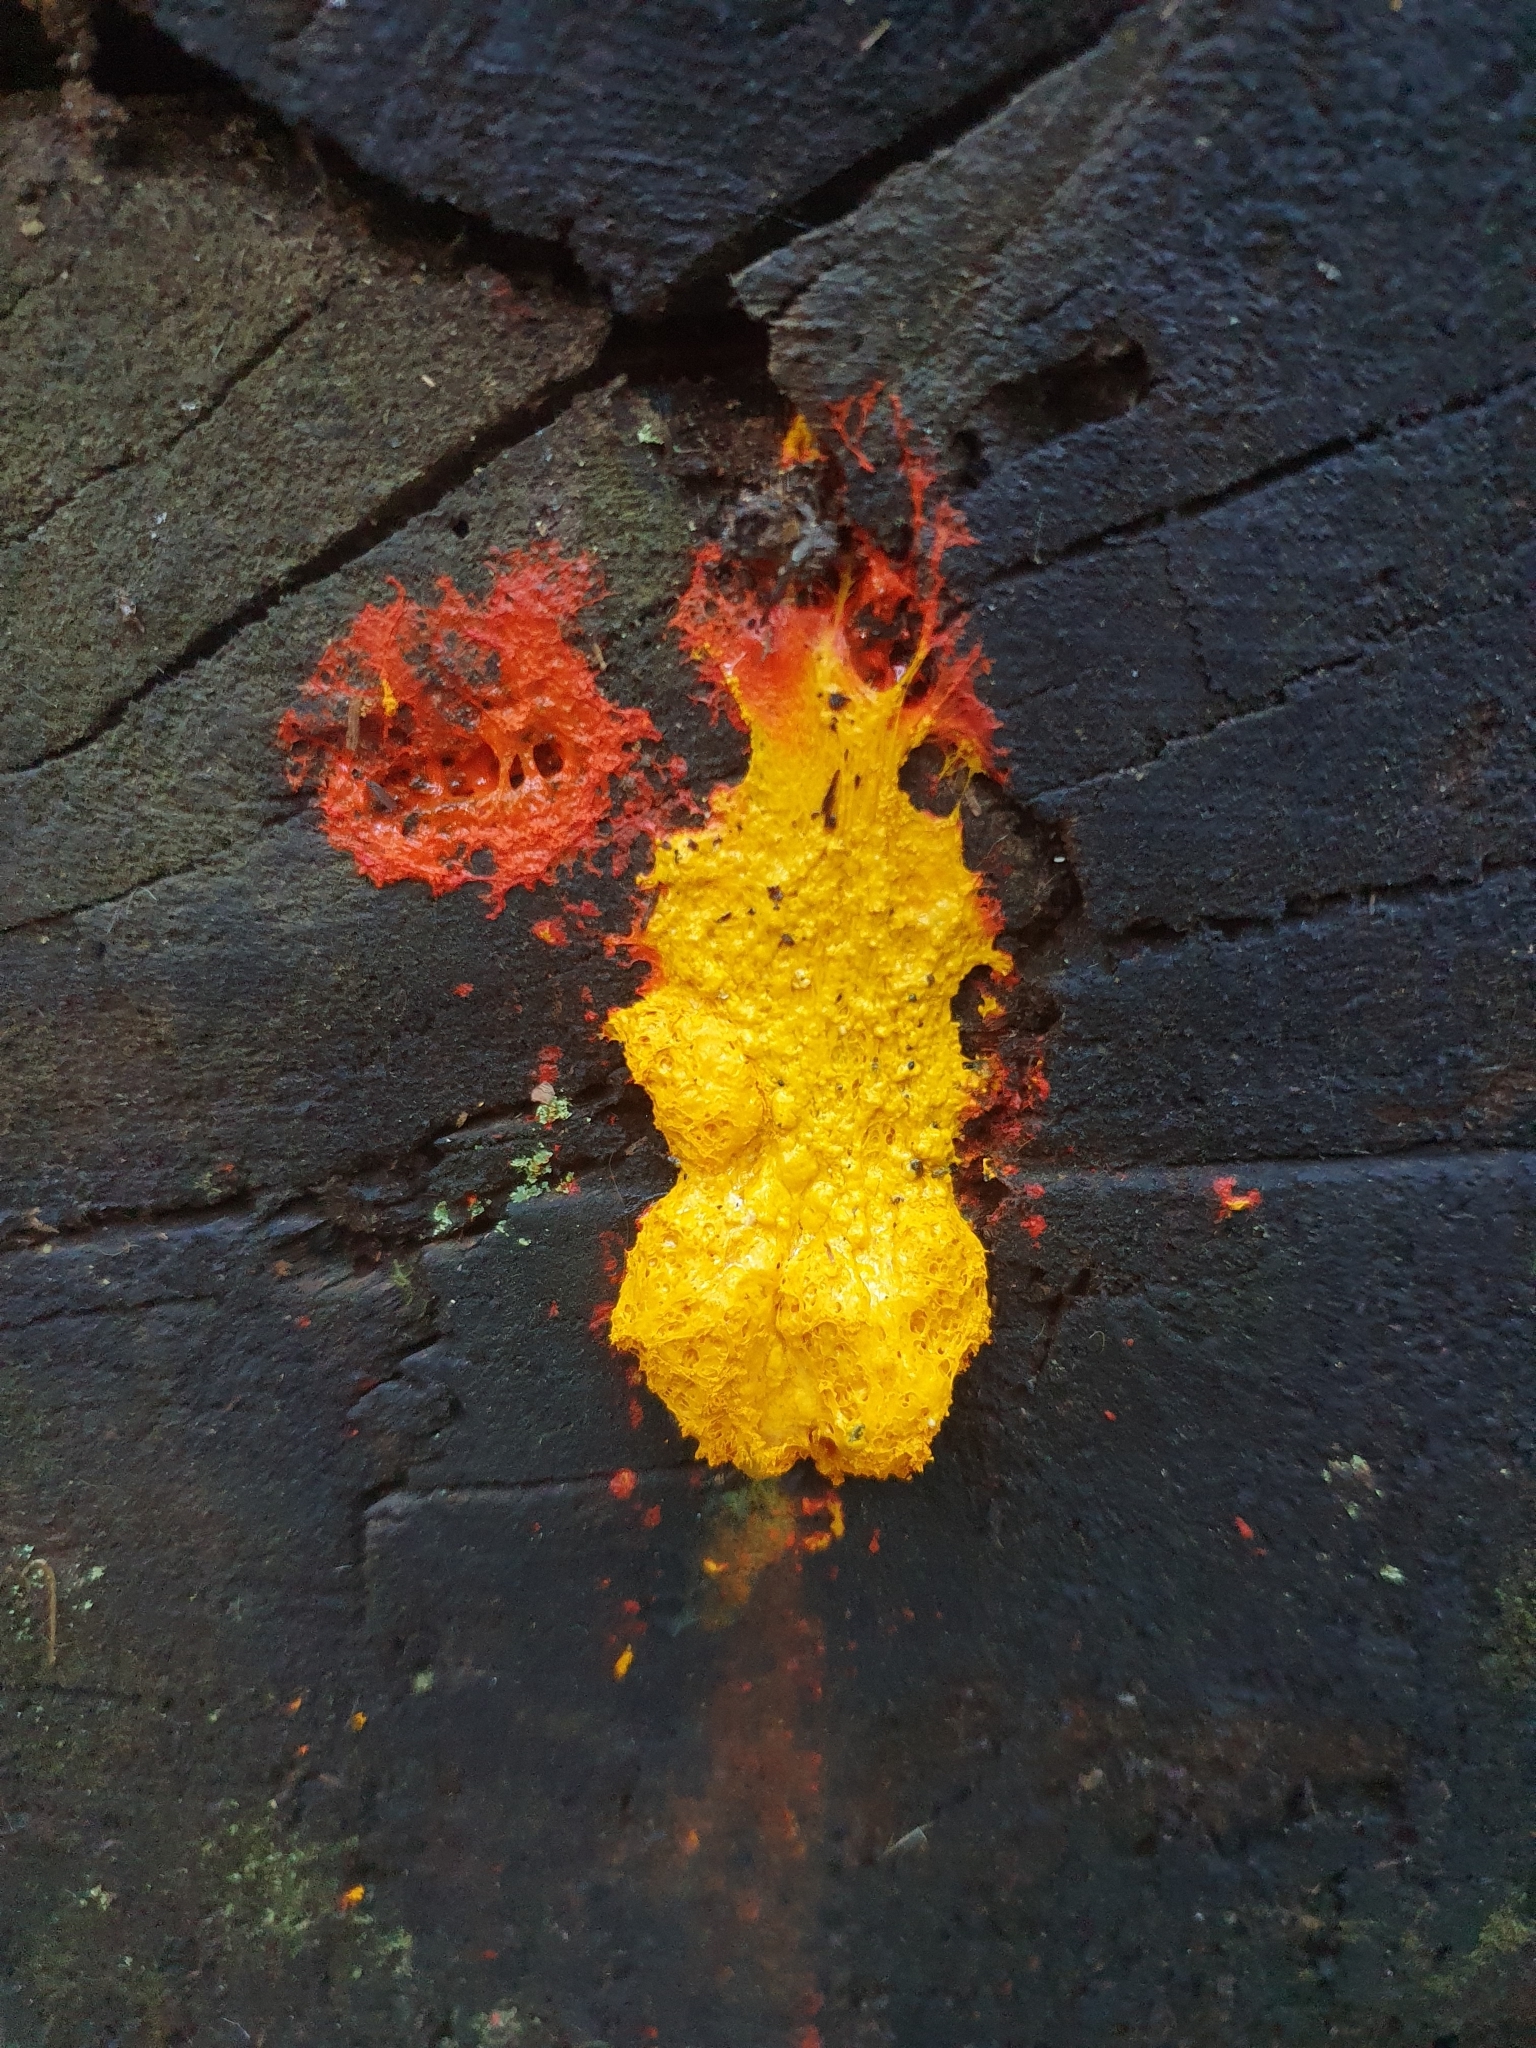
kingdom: Protozoa
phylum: Mycetozoa
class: Myxomycetes
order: Physarales
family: Physaraceae
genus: Fuligo
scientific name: Fuligo septica
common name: Dog vomit slime mold
